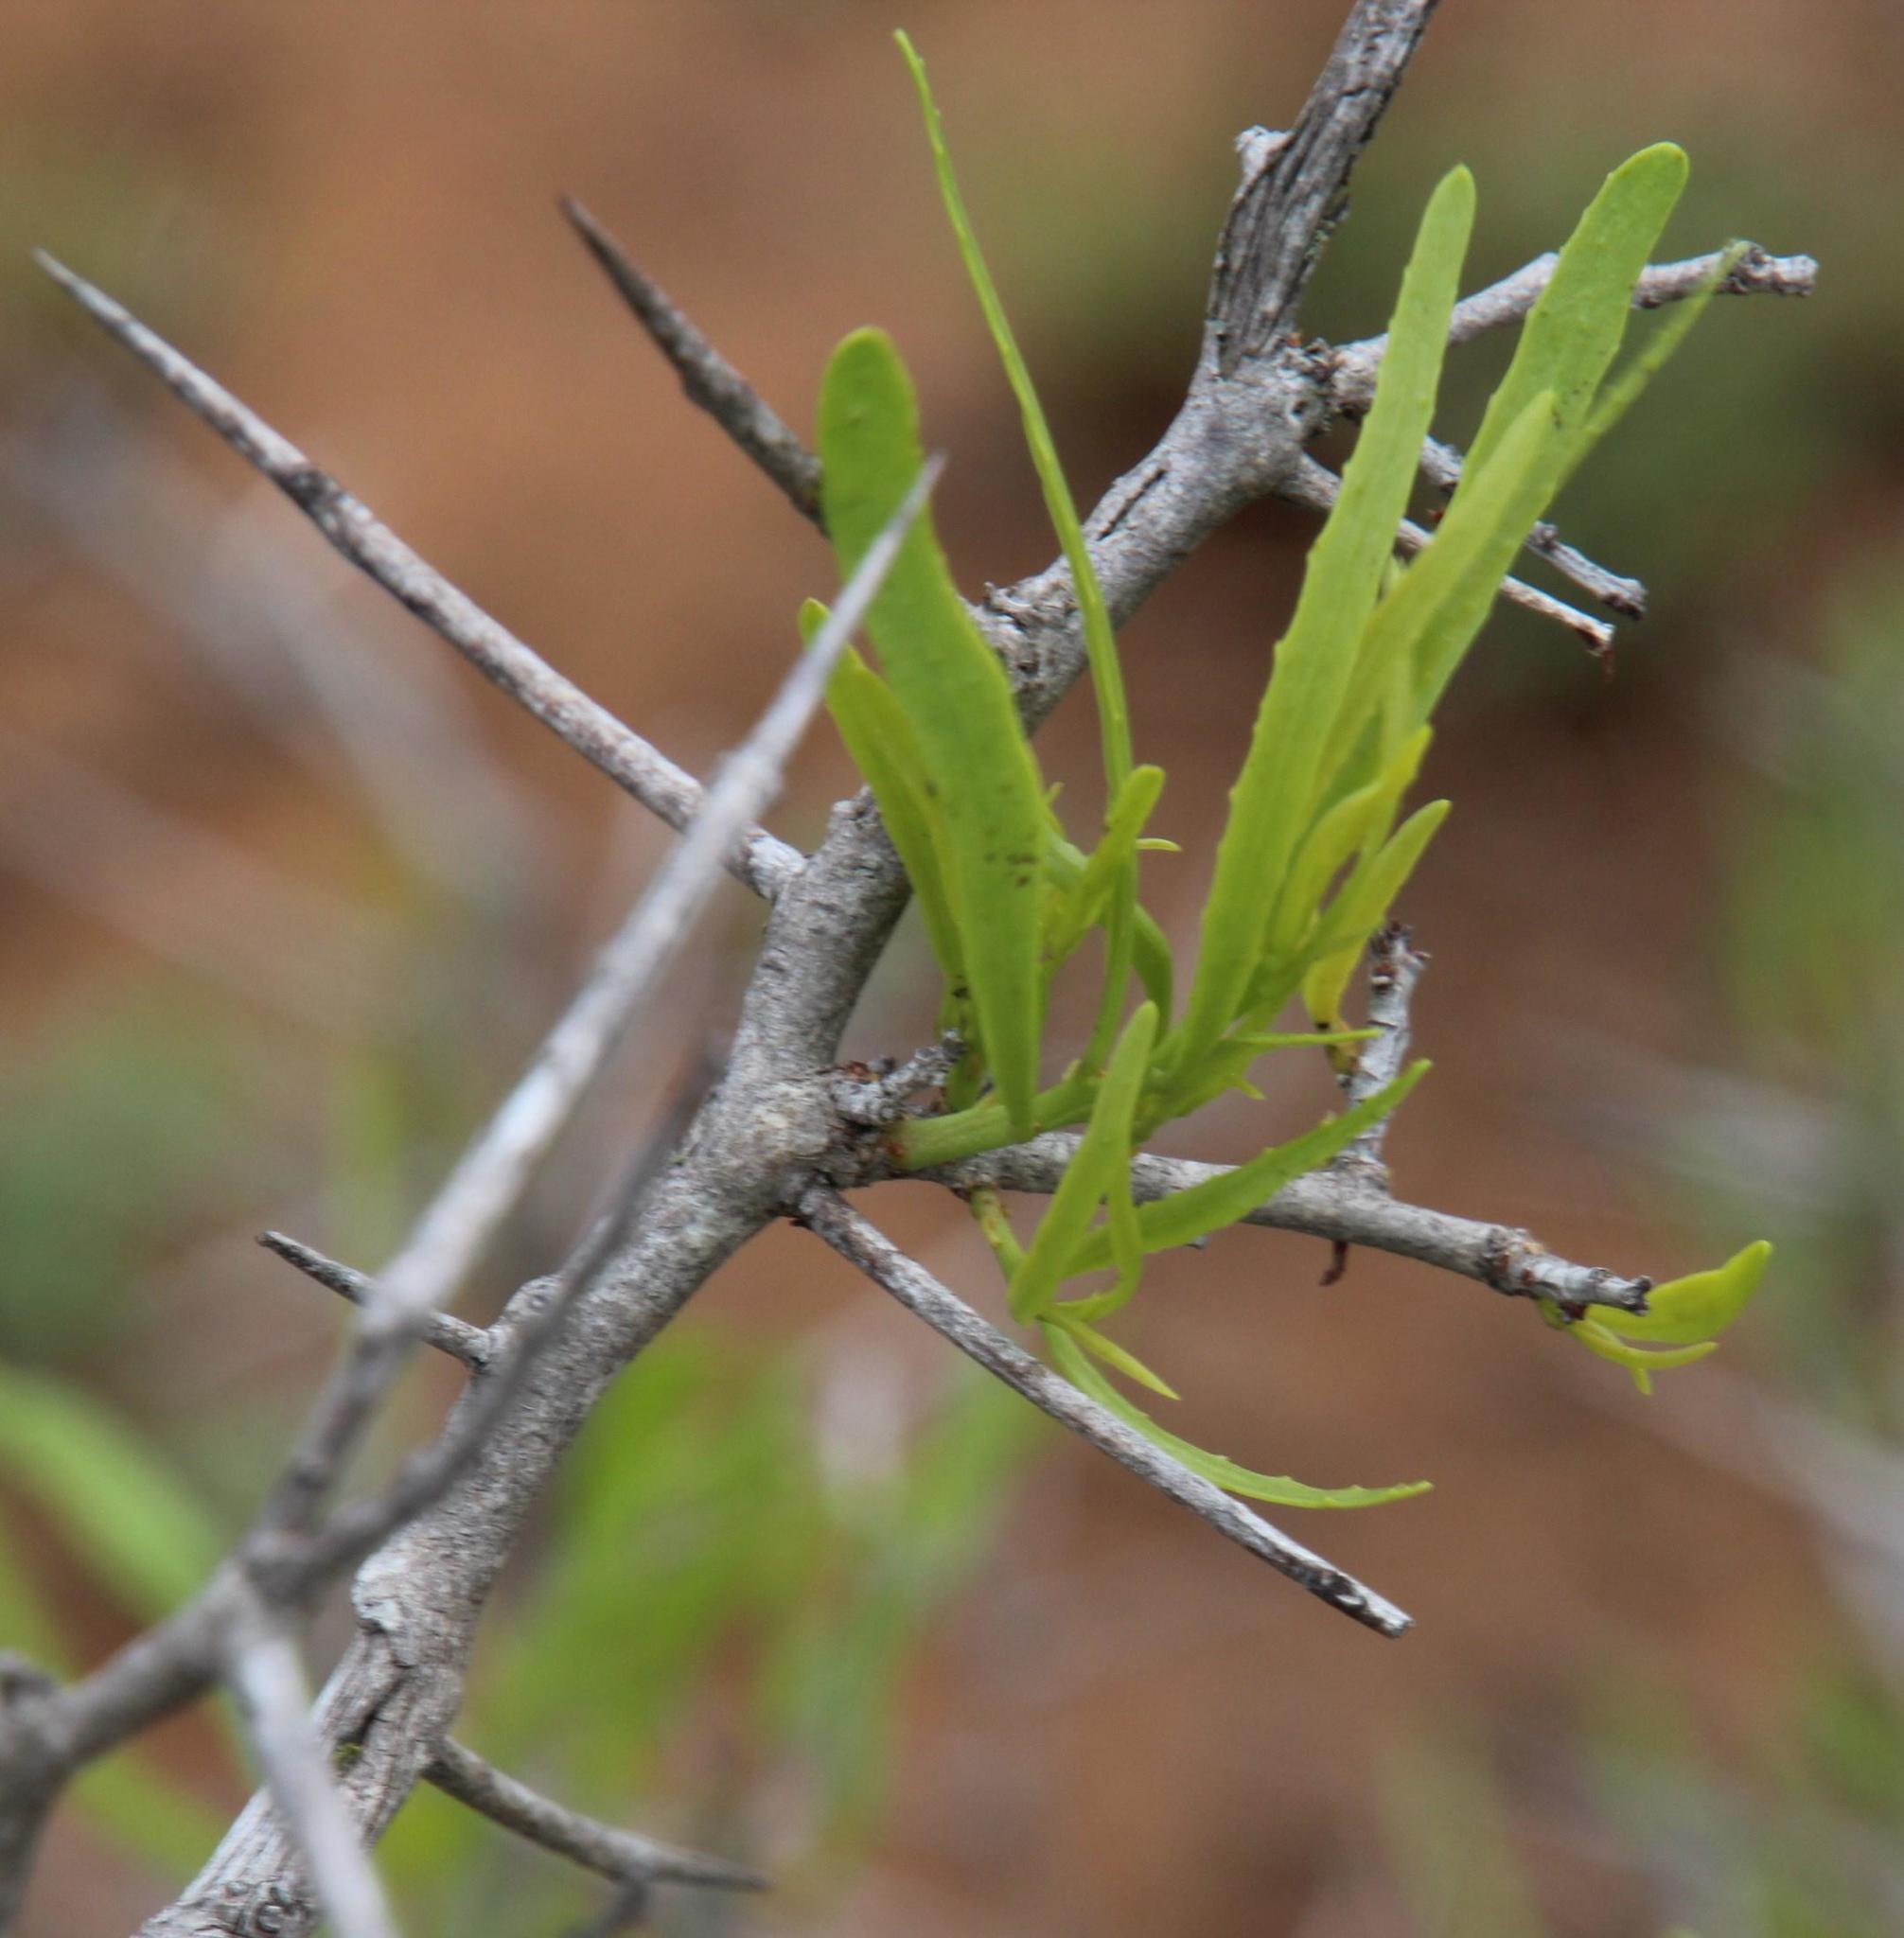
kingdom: Plantae
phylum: Tracheophyta
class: Magnoliopsida
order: Celastrales
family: Celastraceae
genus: Gymnosporia
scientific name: Gymnosporia linearis
